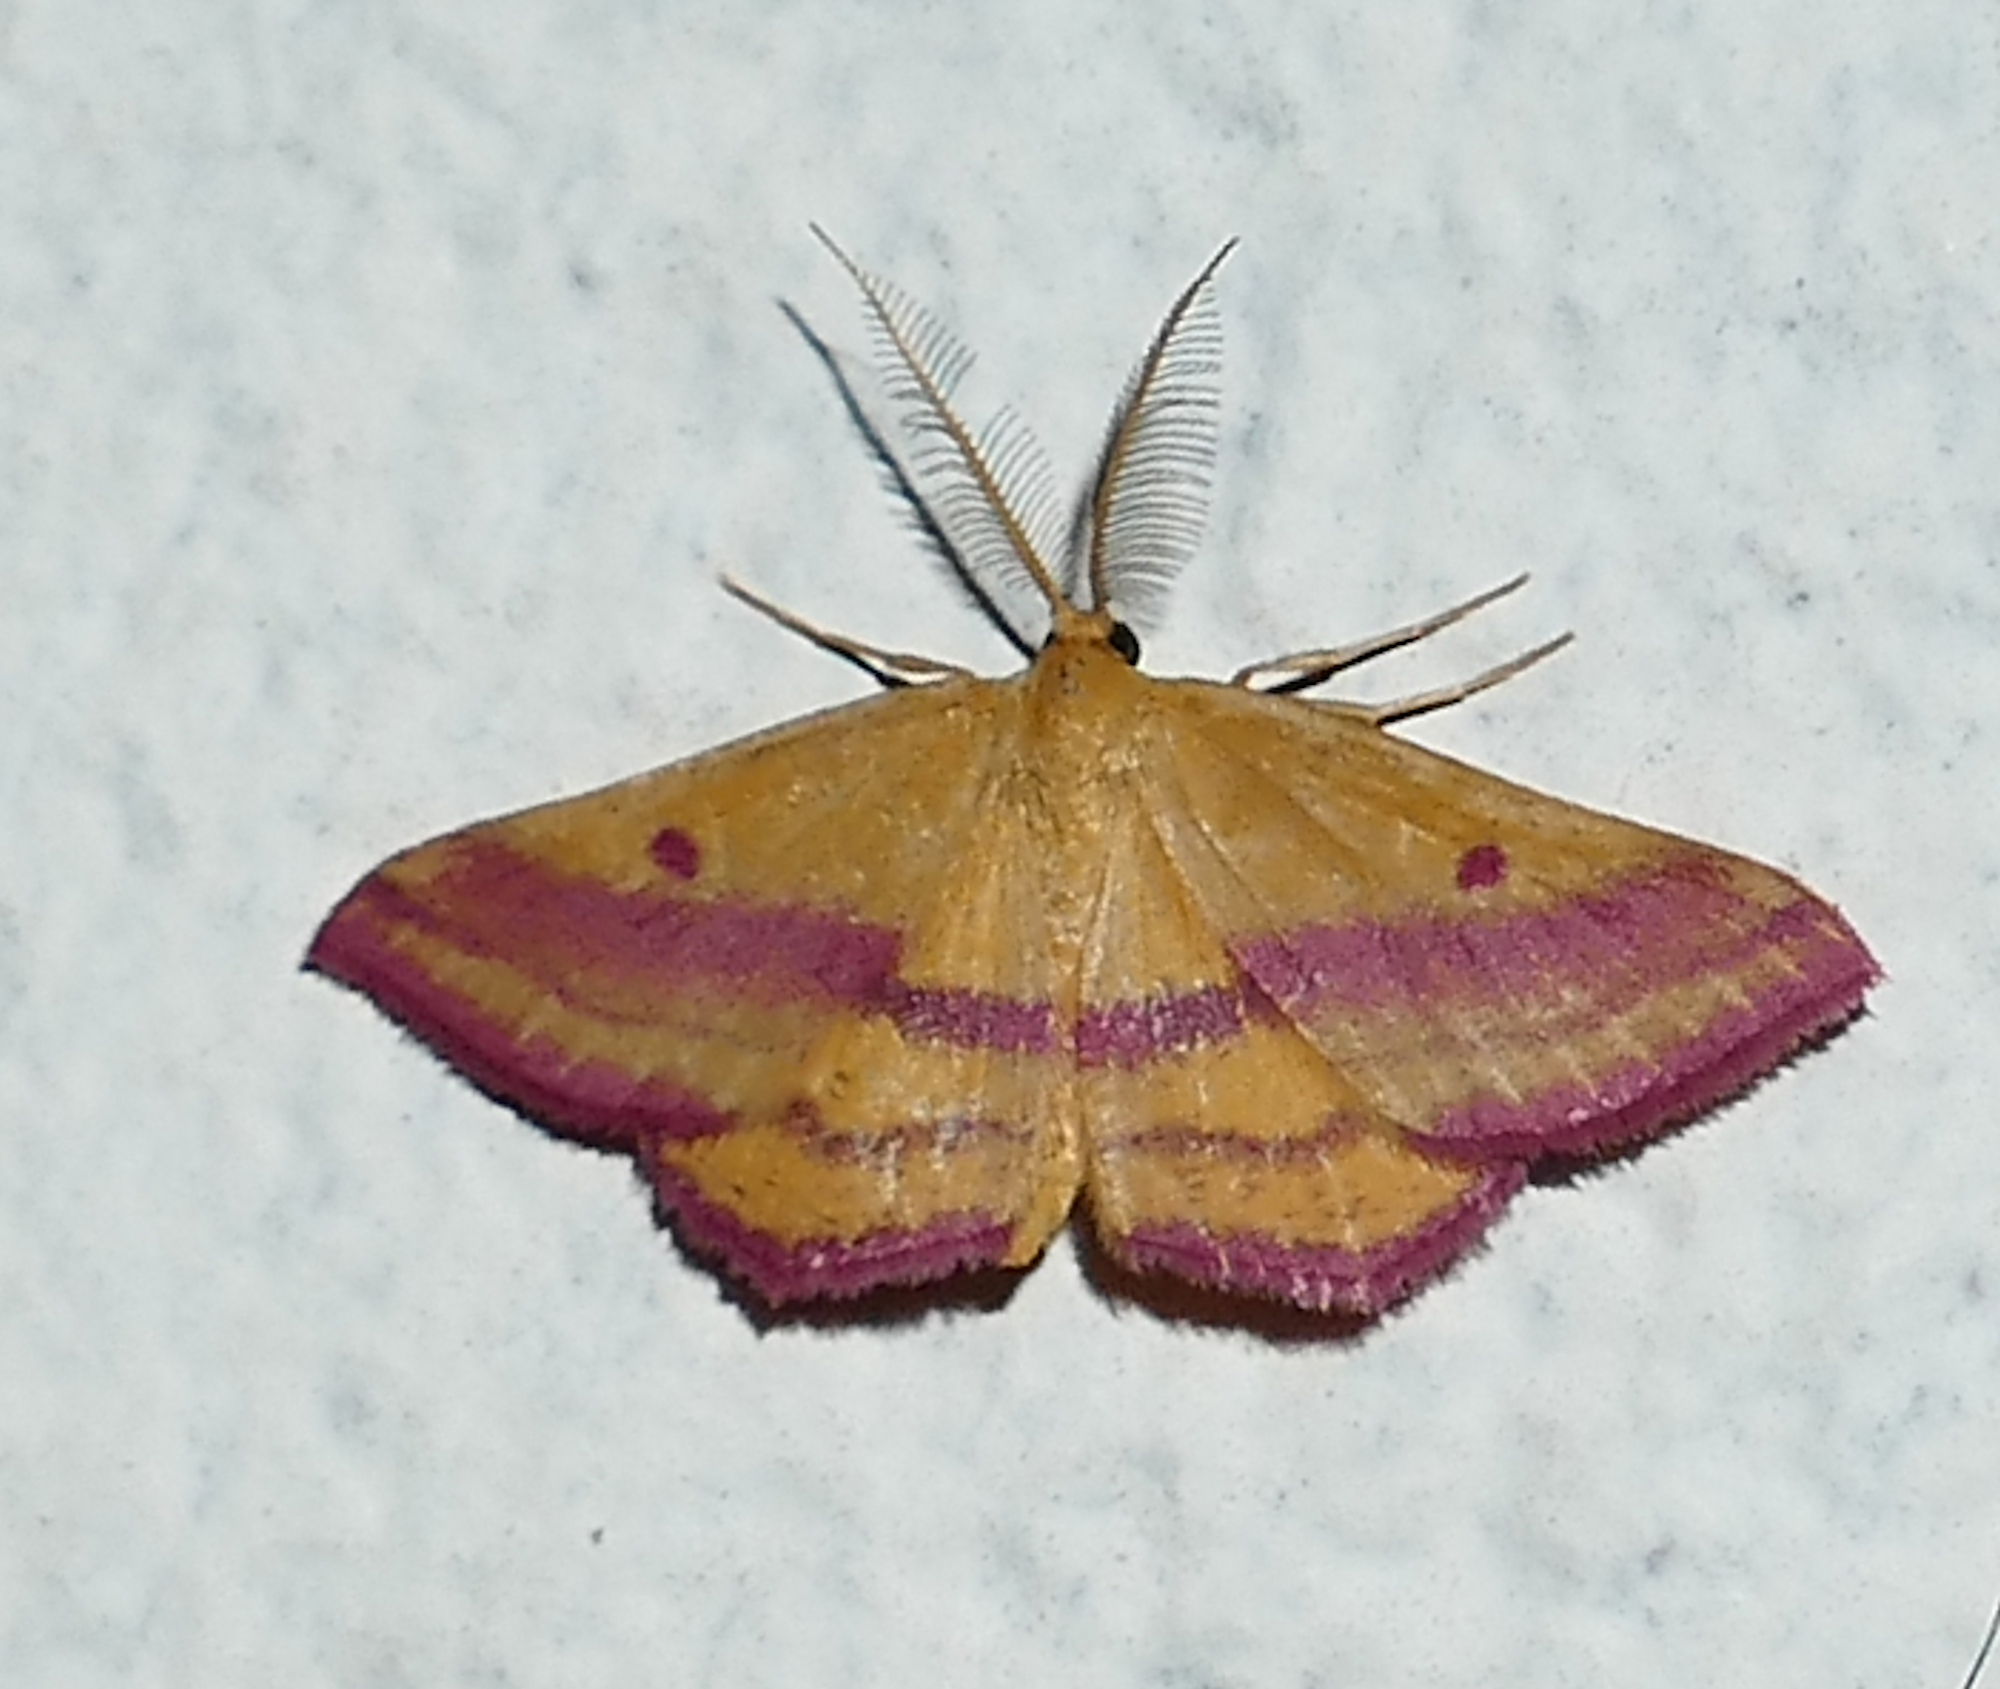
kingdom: Animalia
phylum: Arthropoda
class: Insecta
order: Lepidoptera
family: Geometridae
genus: Haematopis
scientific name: Haematopis grataria
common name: Chickweed geometer
